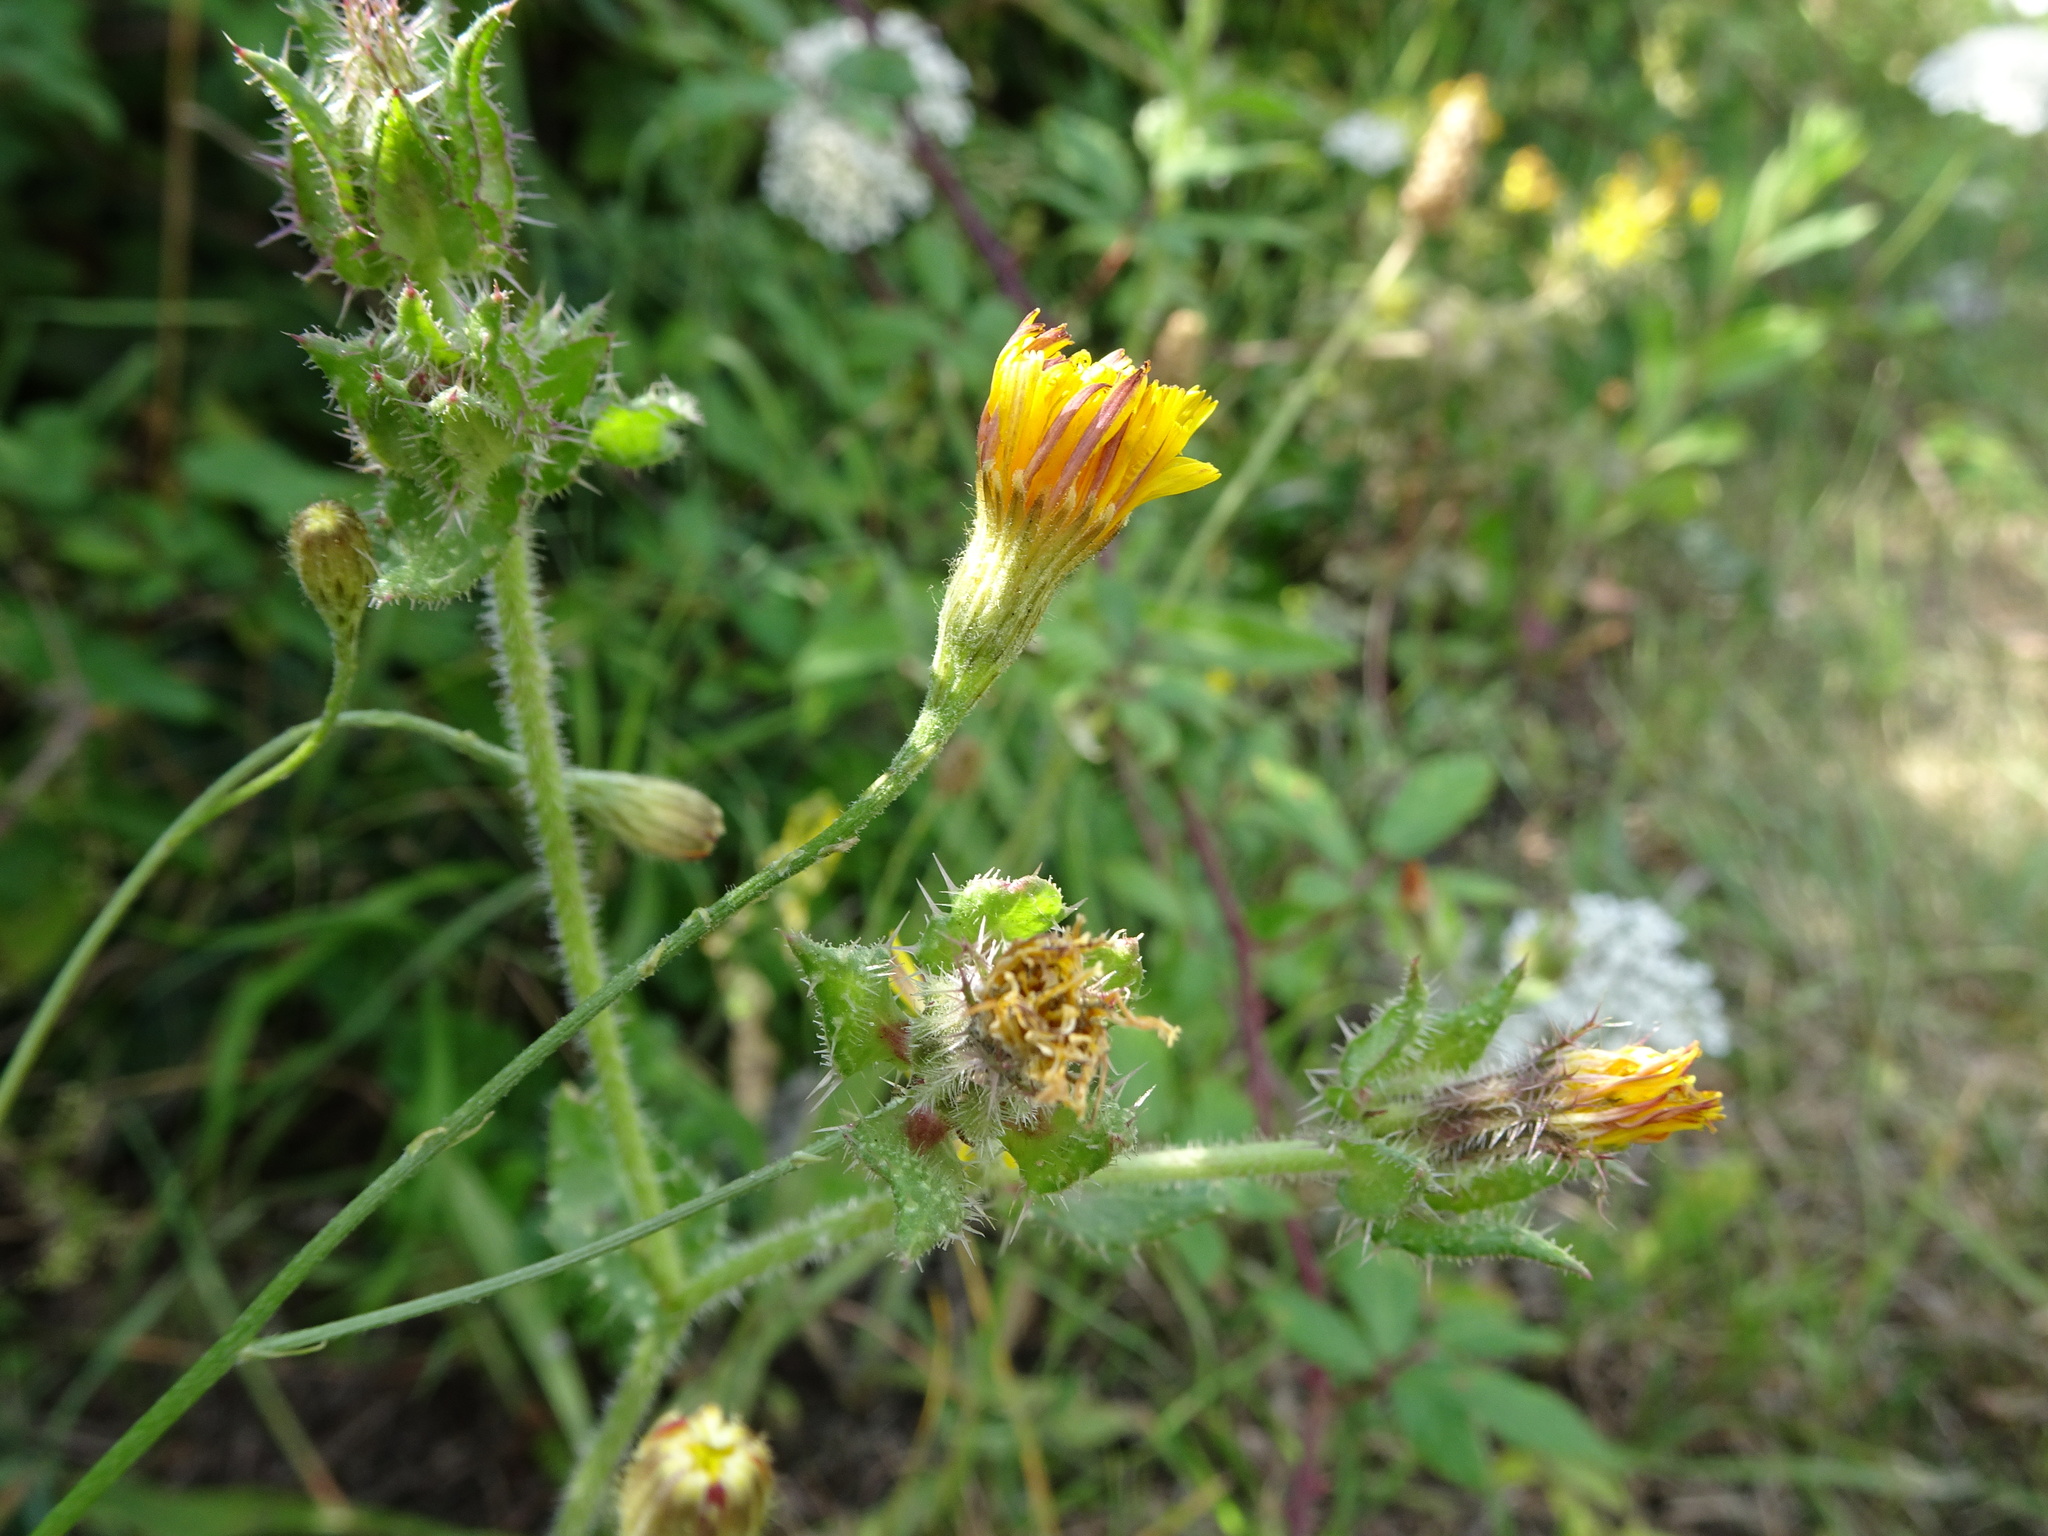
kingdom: Plantae
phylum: Tracheophyta
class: Magnoliopsida
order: Asterales
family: Asteraceae
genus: Helminthotheca
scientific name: Helminthotheca echioides
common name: Ox-tongue
